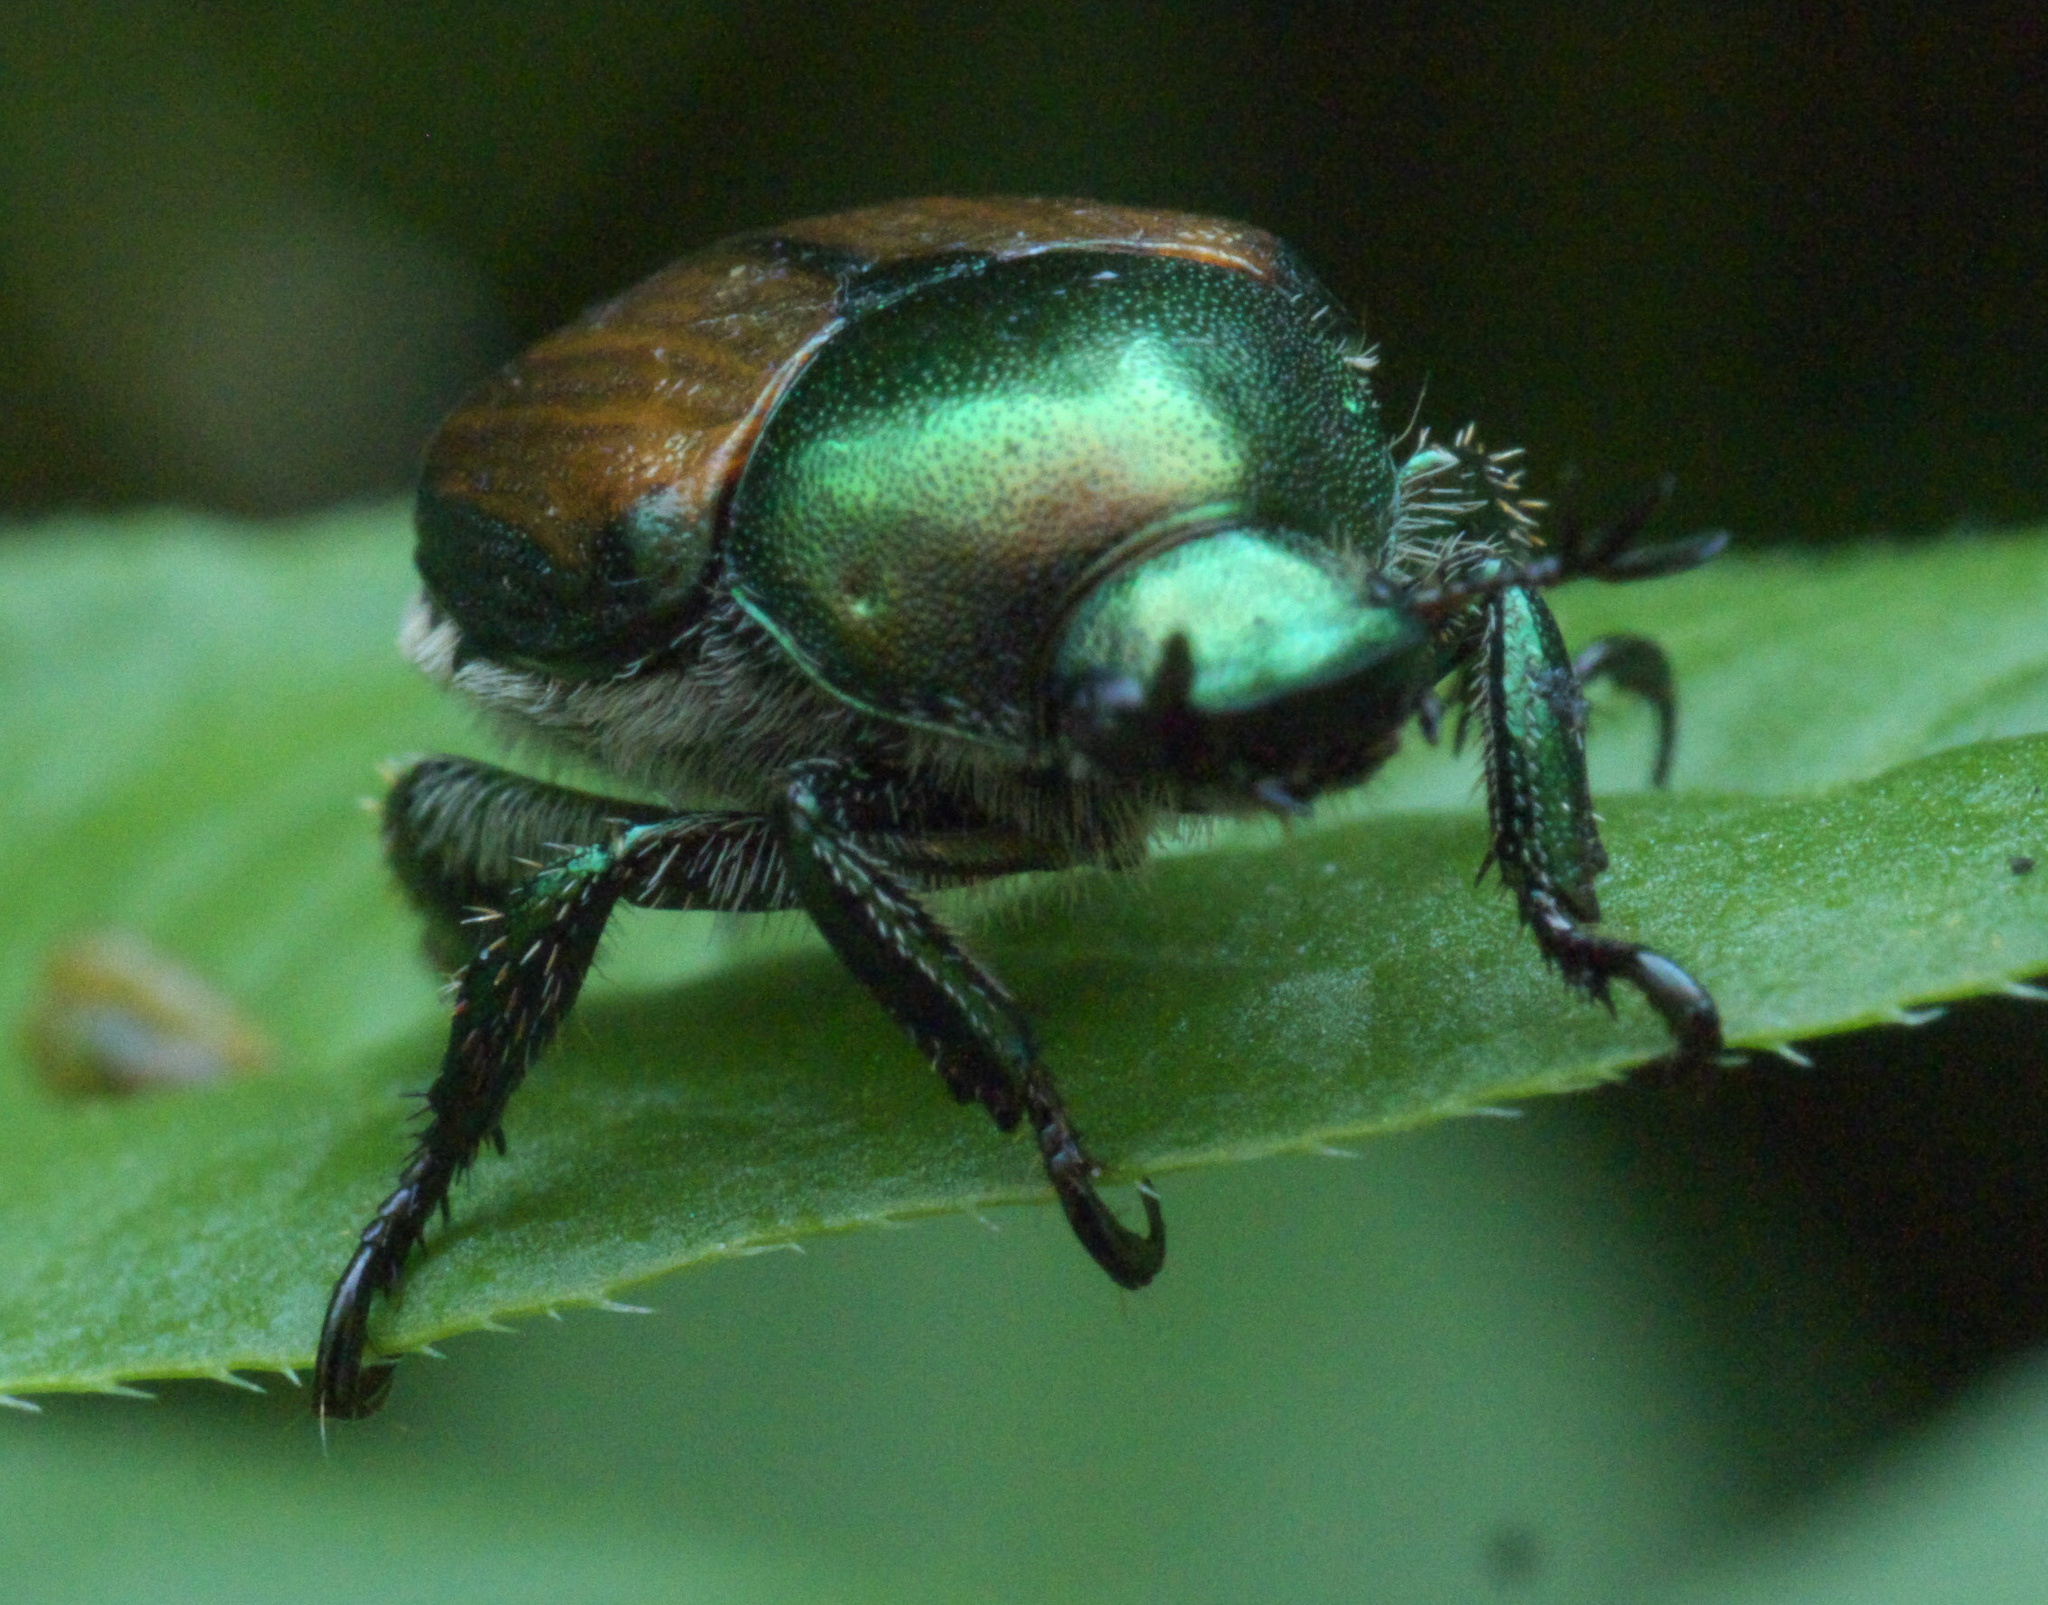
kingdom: Animalia
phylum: Arthropoda
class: Insecta
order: Coleoptera
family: Scarabaeidae
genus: Popillia
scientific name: Popillia japonica
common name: Japanese beetle
